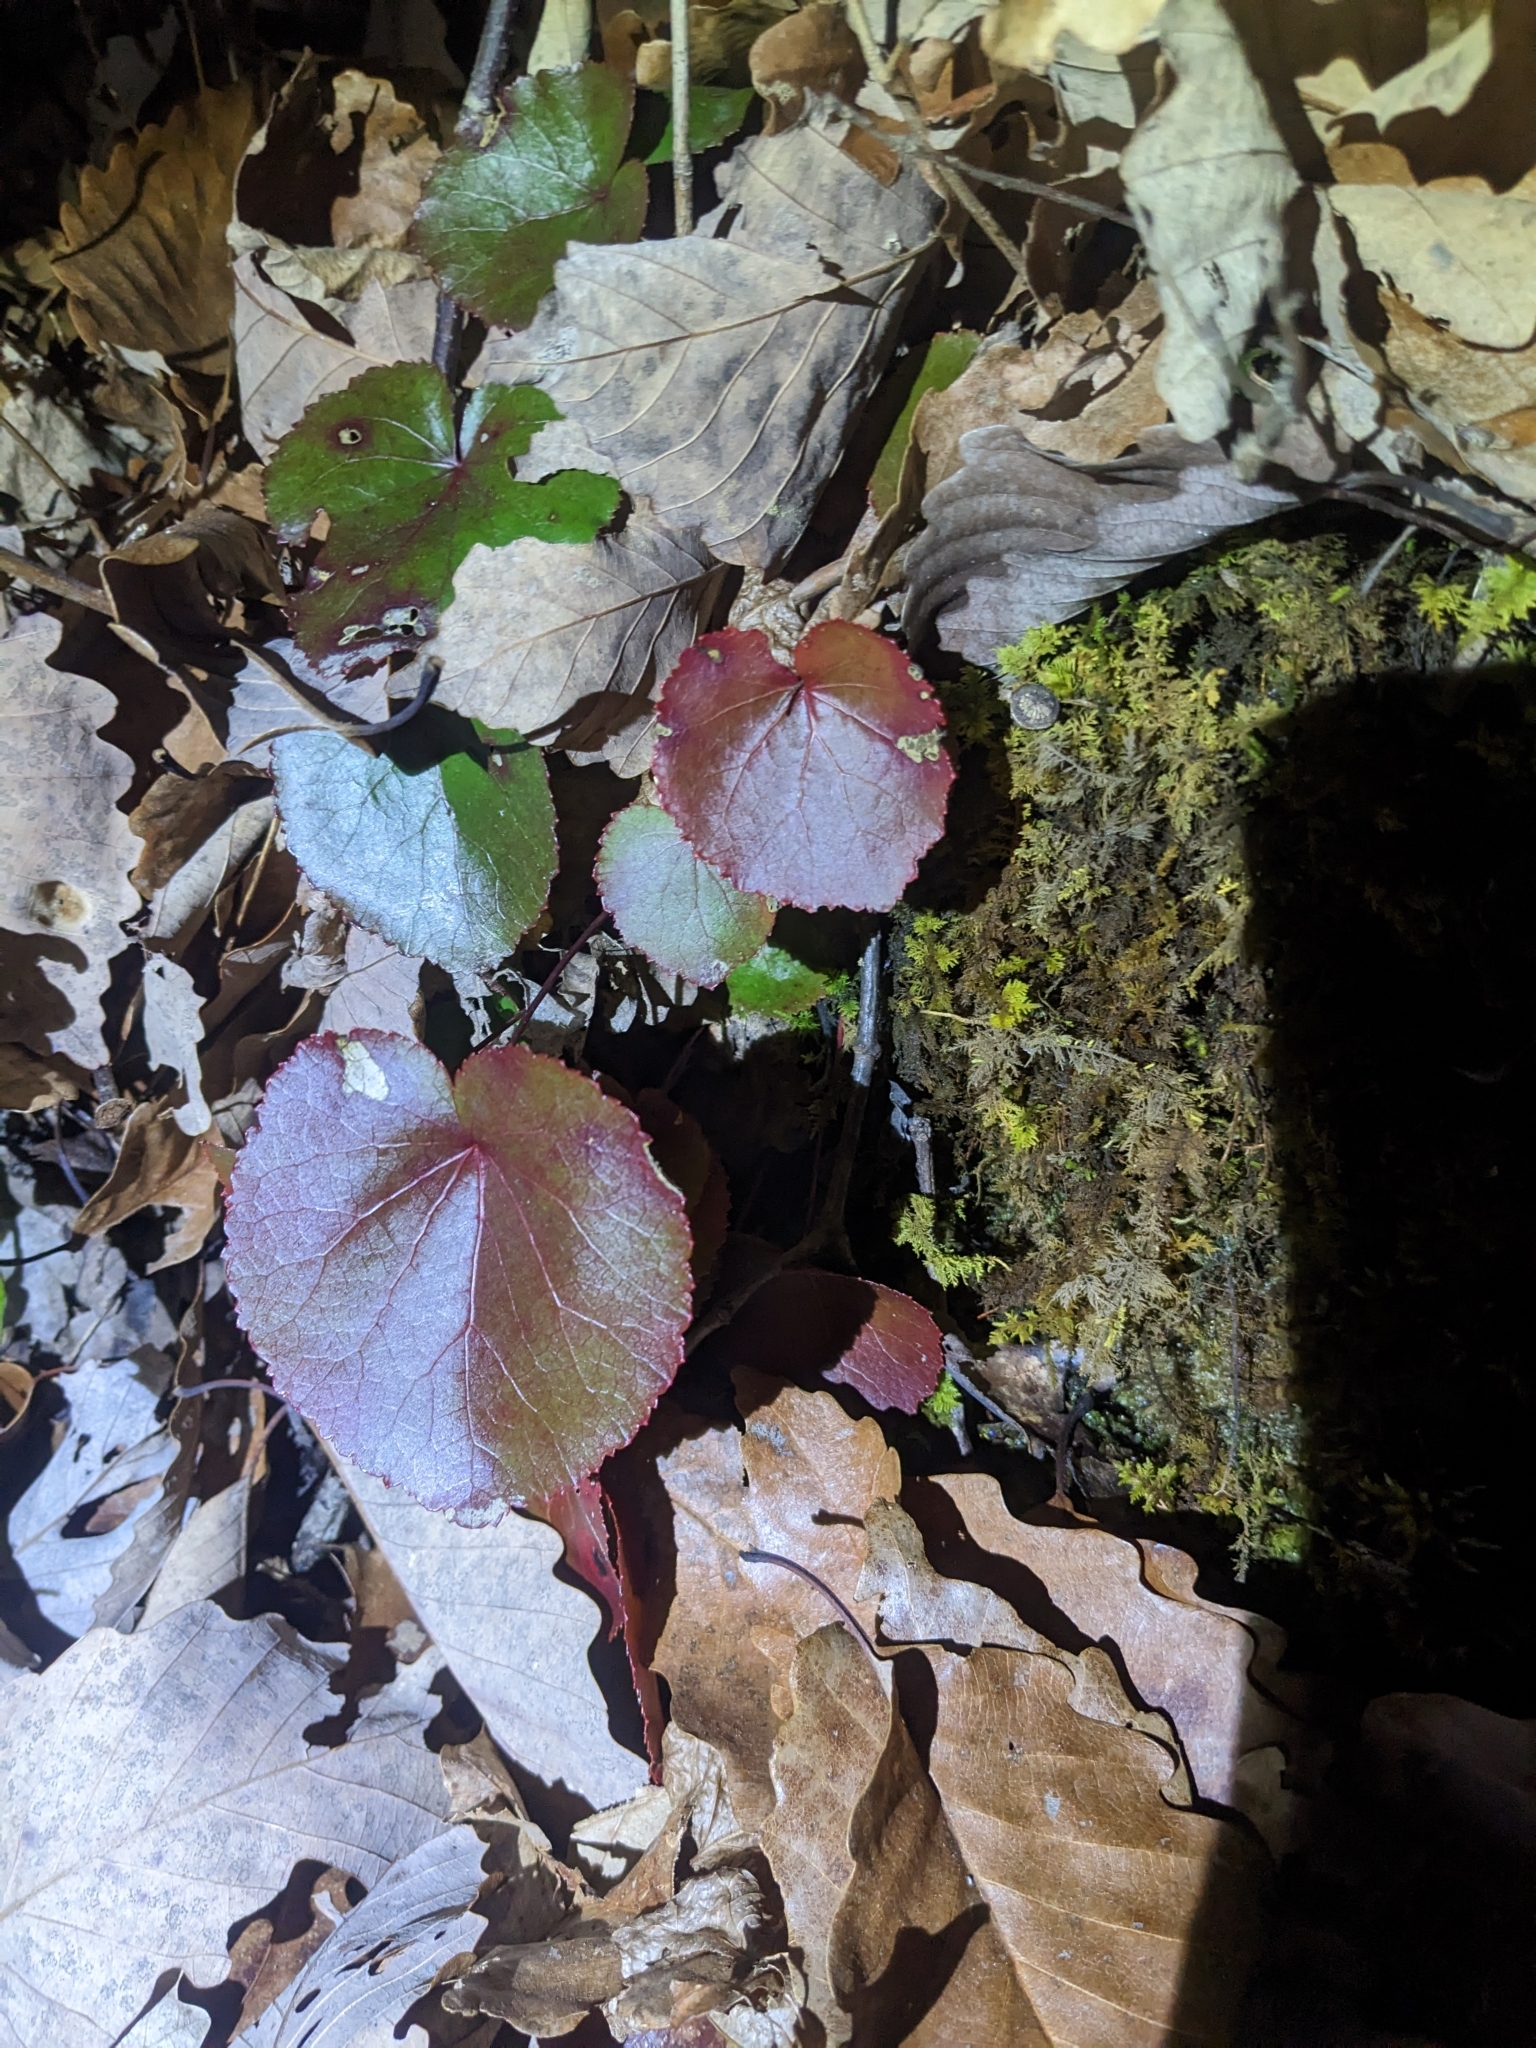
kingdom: Plantae
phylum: Tracheophyta
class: Magnoliopsida
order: Ericales
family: Diapensiaceae
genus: Galax
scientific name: Galax urceolata
